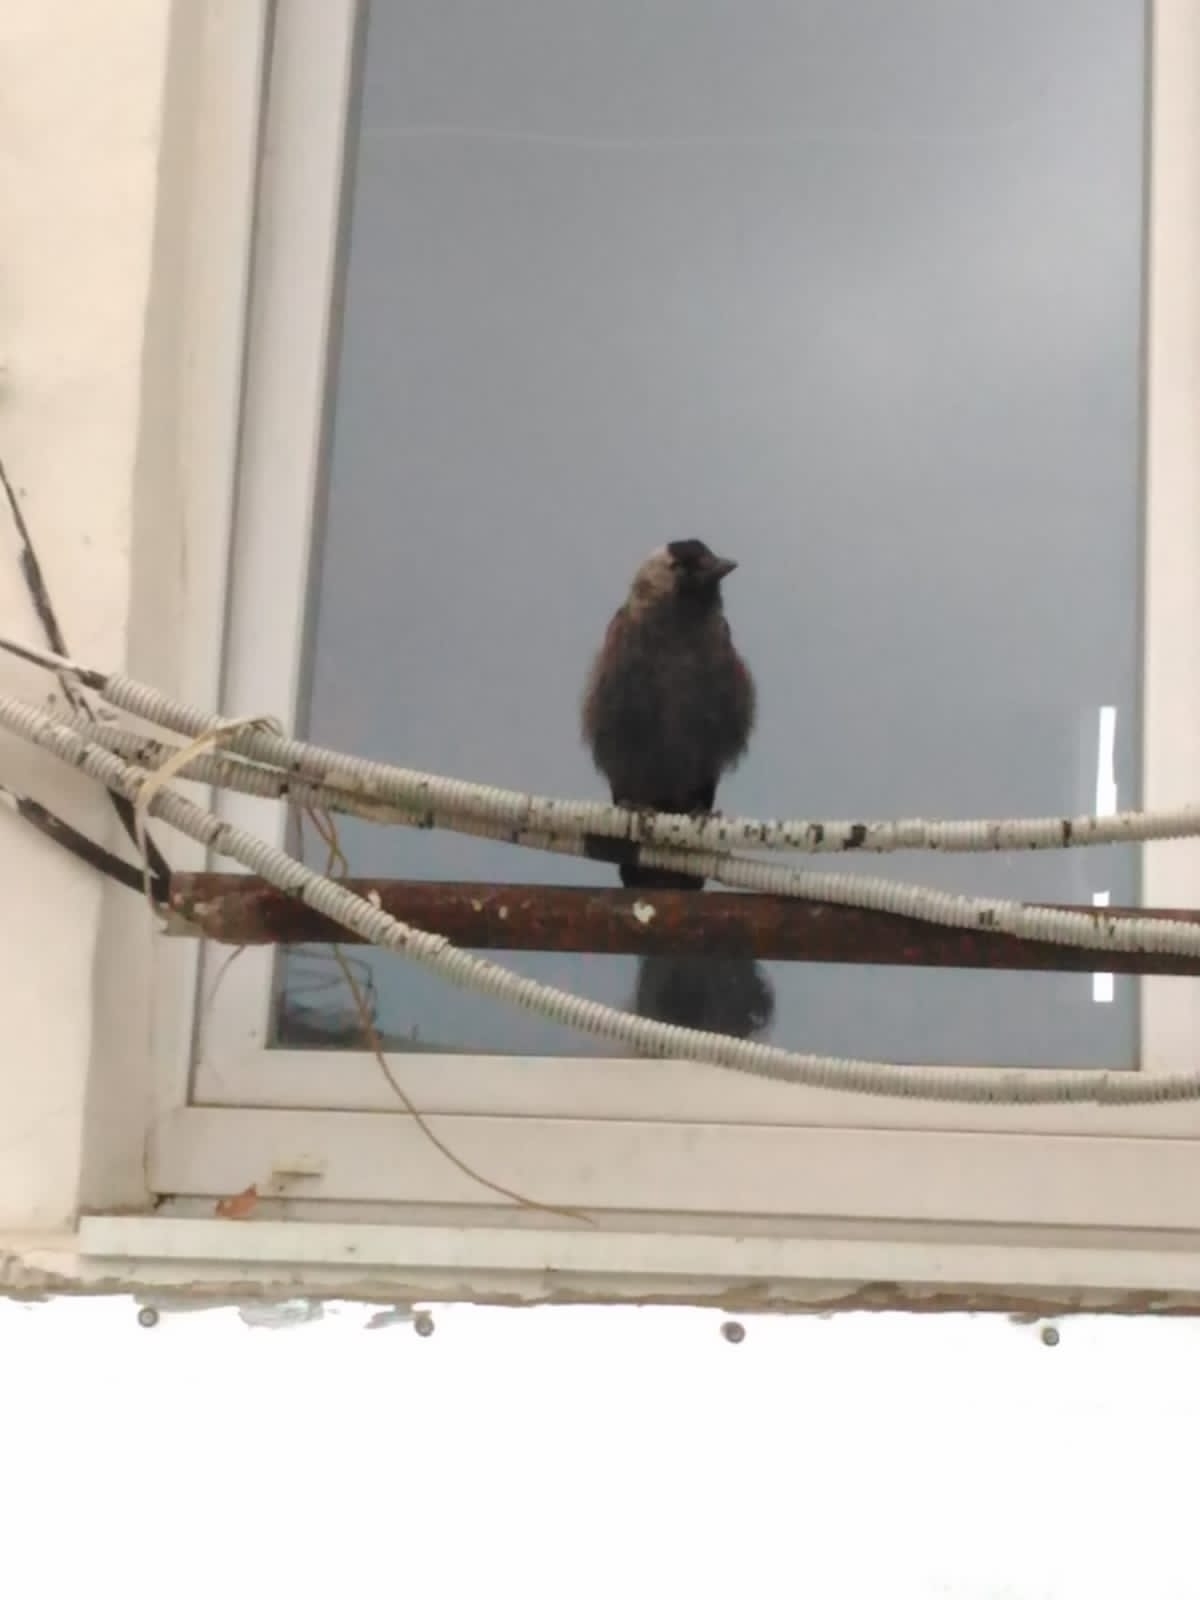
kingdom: Animalia
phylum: Chordata
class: Aves
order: Passeriformes
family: Corvidae
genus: Coloeus
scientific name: Coloeus monedula
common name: Western jackdaw
